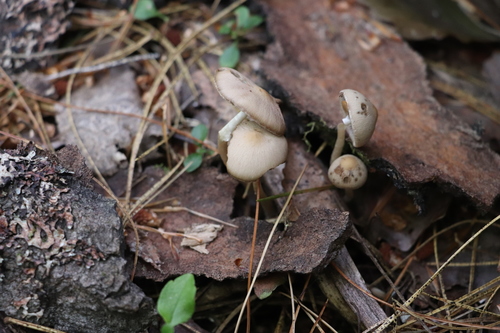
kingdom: Fungi
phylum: Basidiomycota
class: Agaricomycetes
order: Agaricales
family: Psathyrellaceae
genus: Psathyrella
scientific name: Psathyrella fatua
